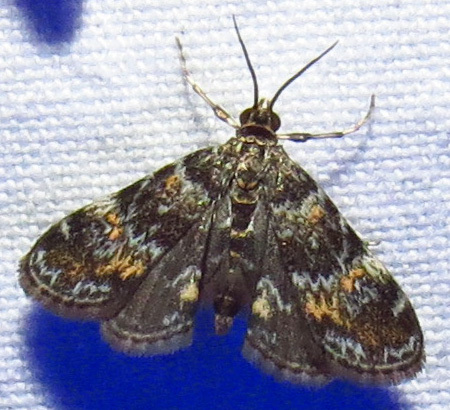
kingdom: Animalia
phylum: Arthropoda
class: Insecta
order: Lepidoptera
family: Crambidae
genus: Elophila
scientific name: Elophila obliteralis
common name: Waterlily leafcutter moth
